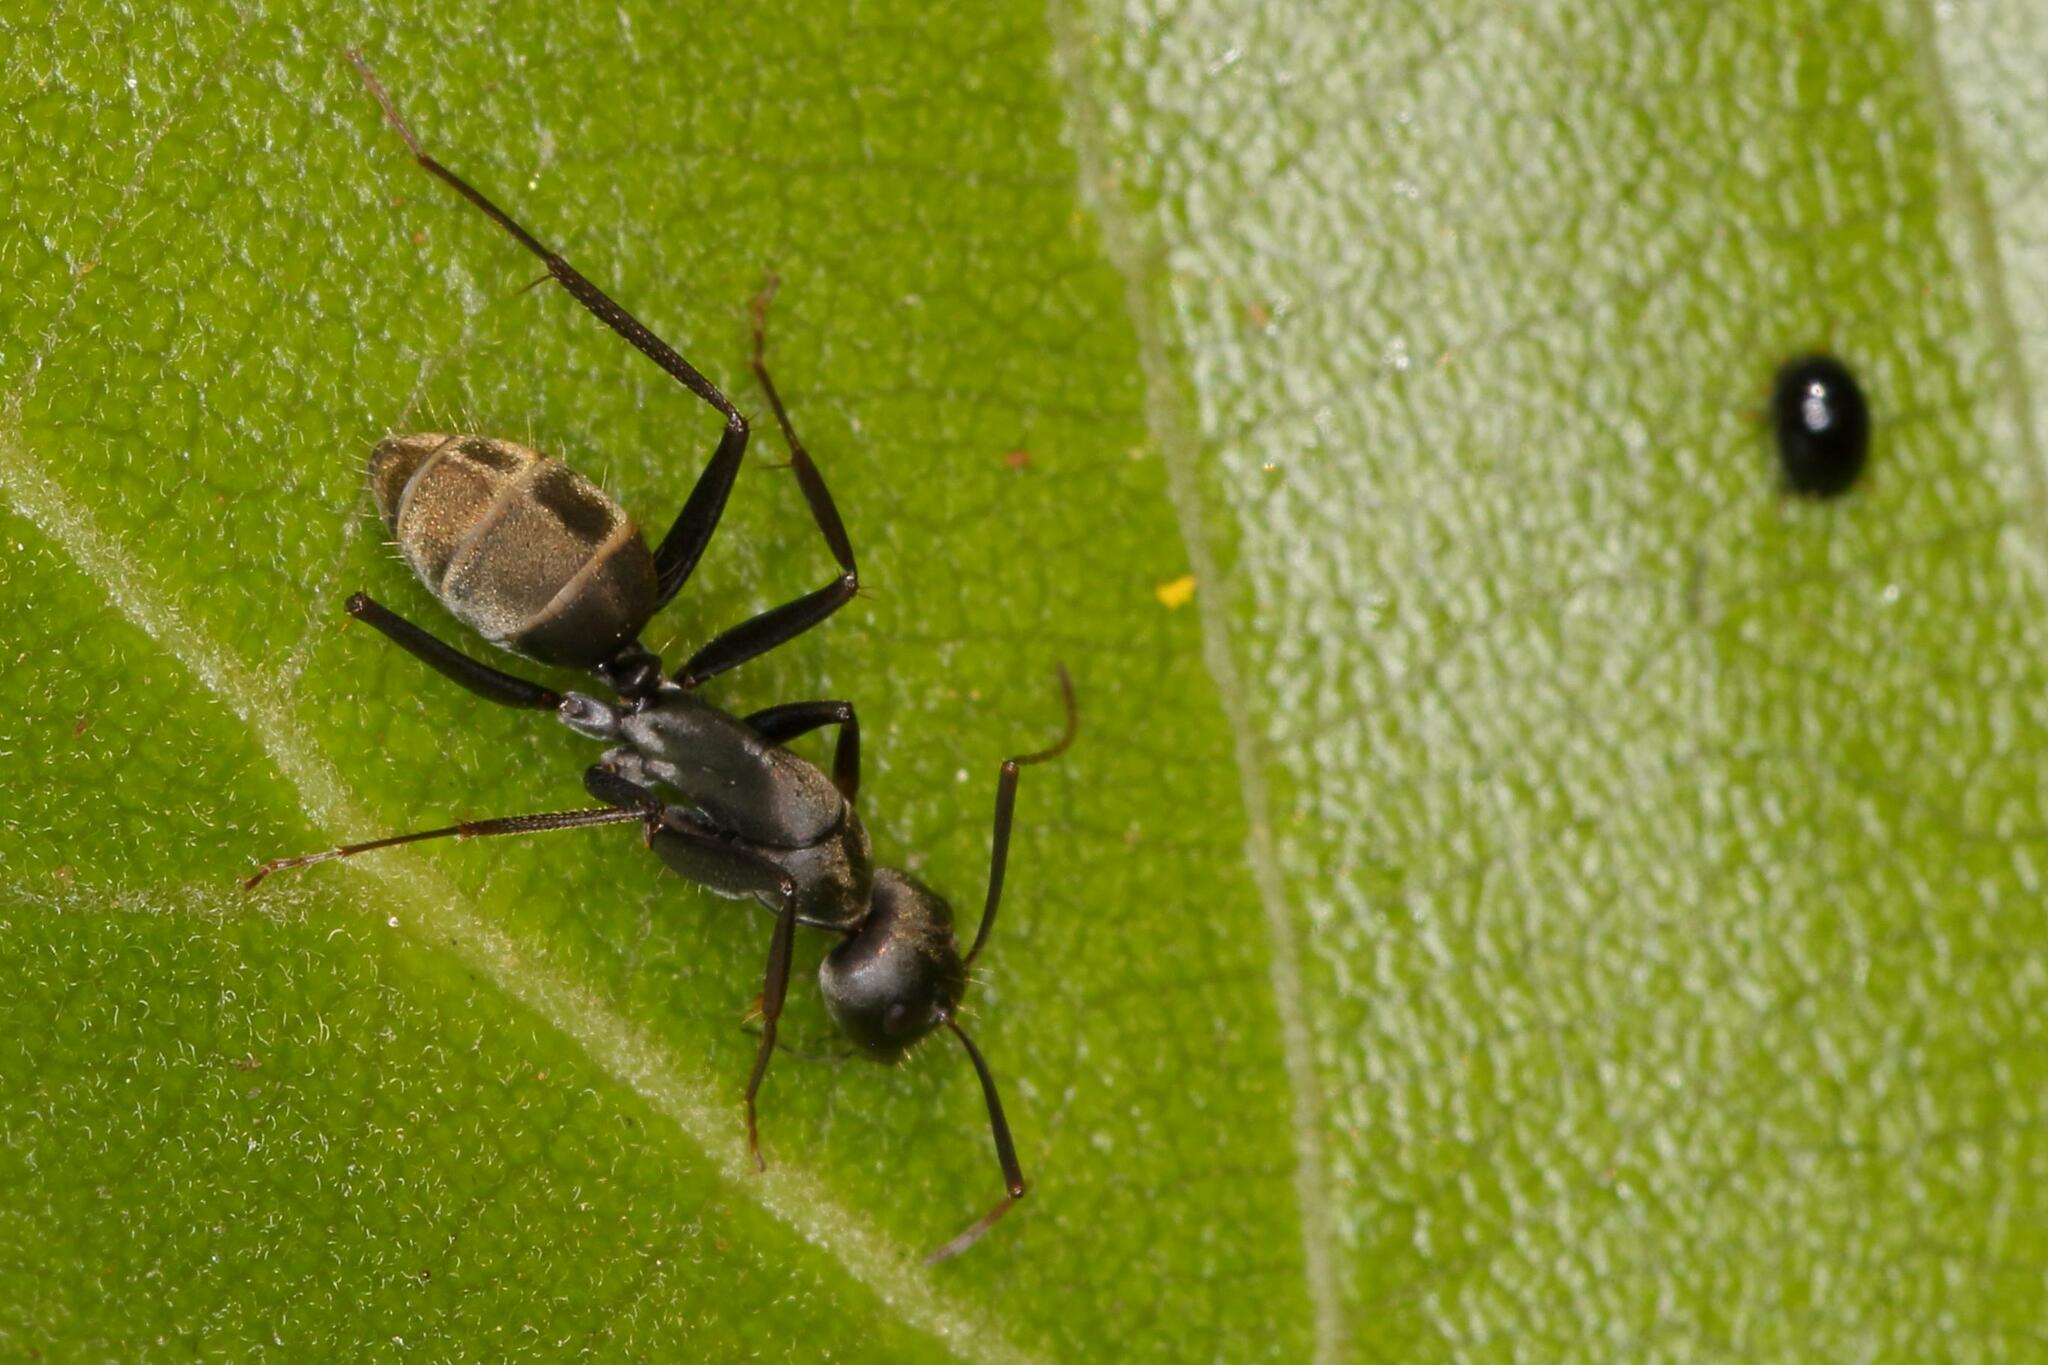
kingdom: Animalia
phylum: Arthropoda
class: Insecta
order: Hymenoptera
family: Formicidae
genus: Camponotus
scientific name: Camponotus cinctellus
